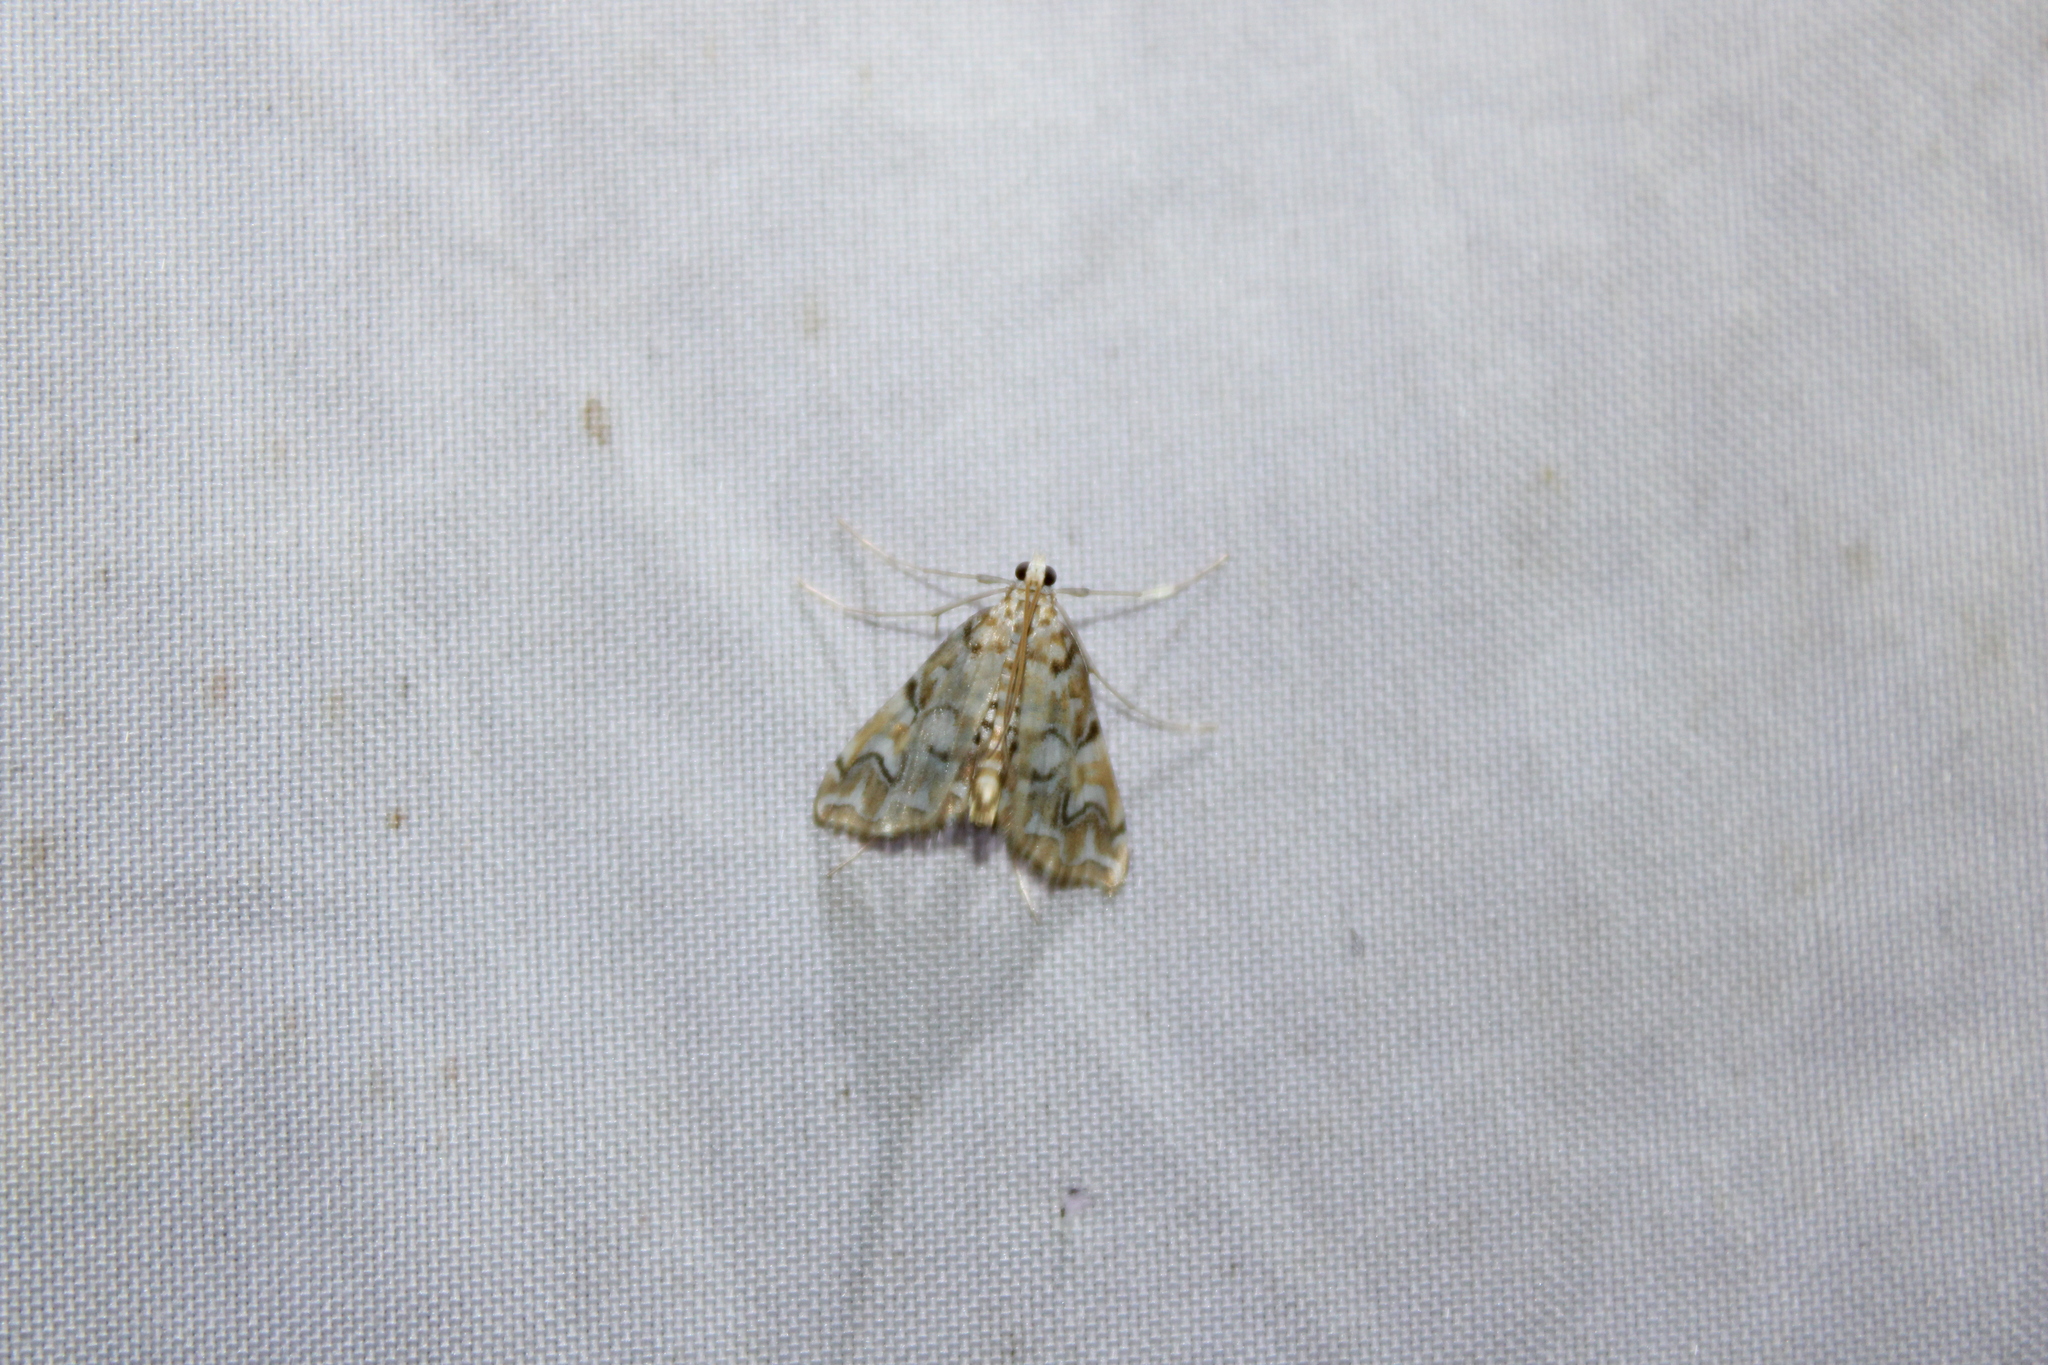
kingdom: Animalia
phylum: Arthropoda
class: Insecta
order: Lepidoptera
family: Crambidae
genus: Elophila
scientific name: Elophila icciusalis
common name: Pondside pyralid moth
